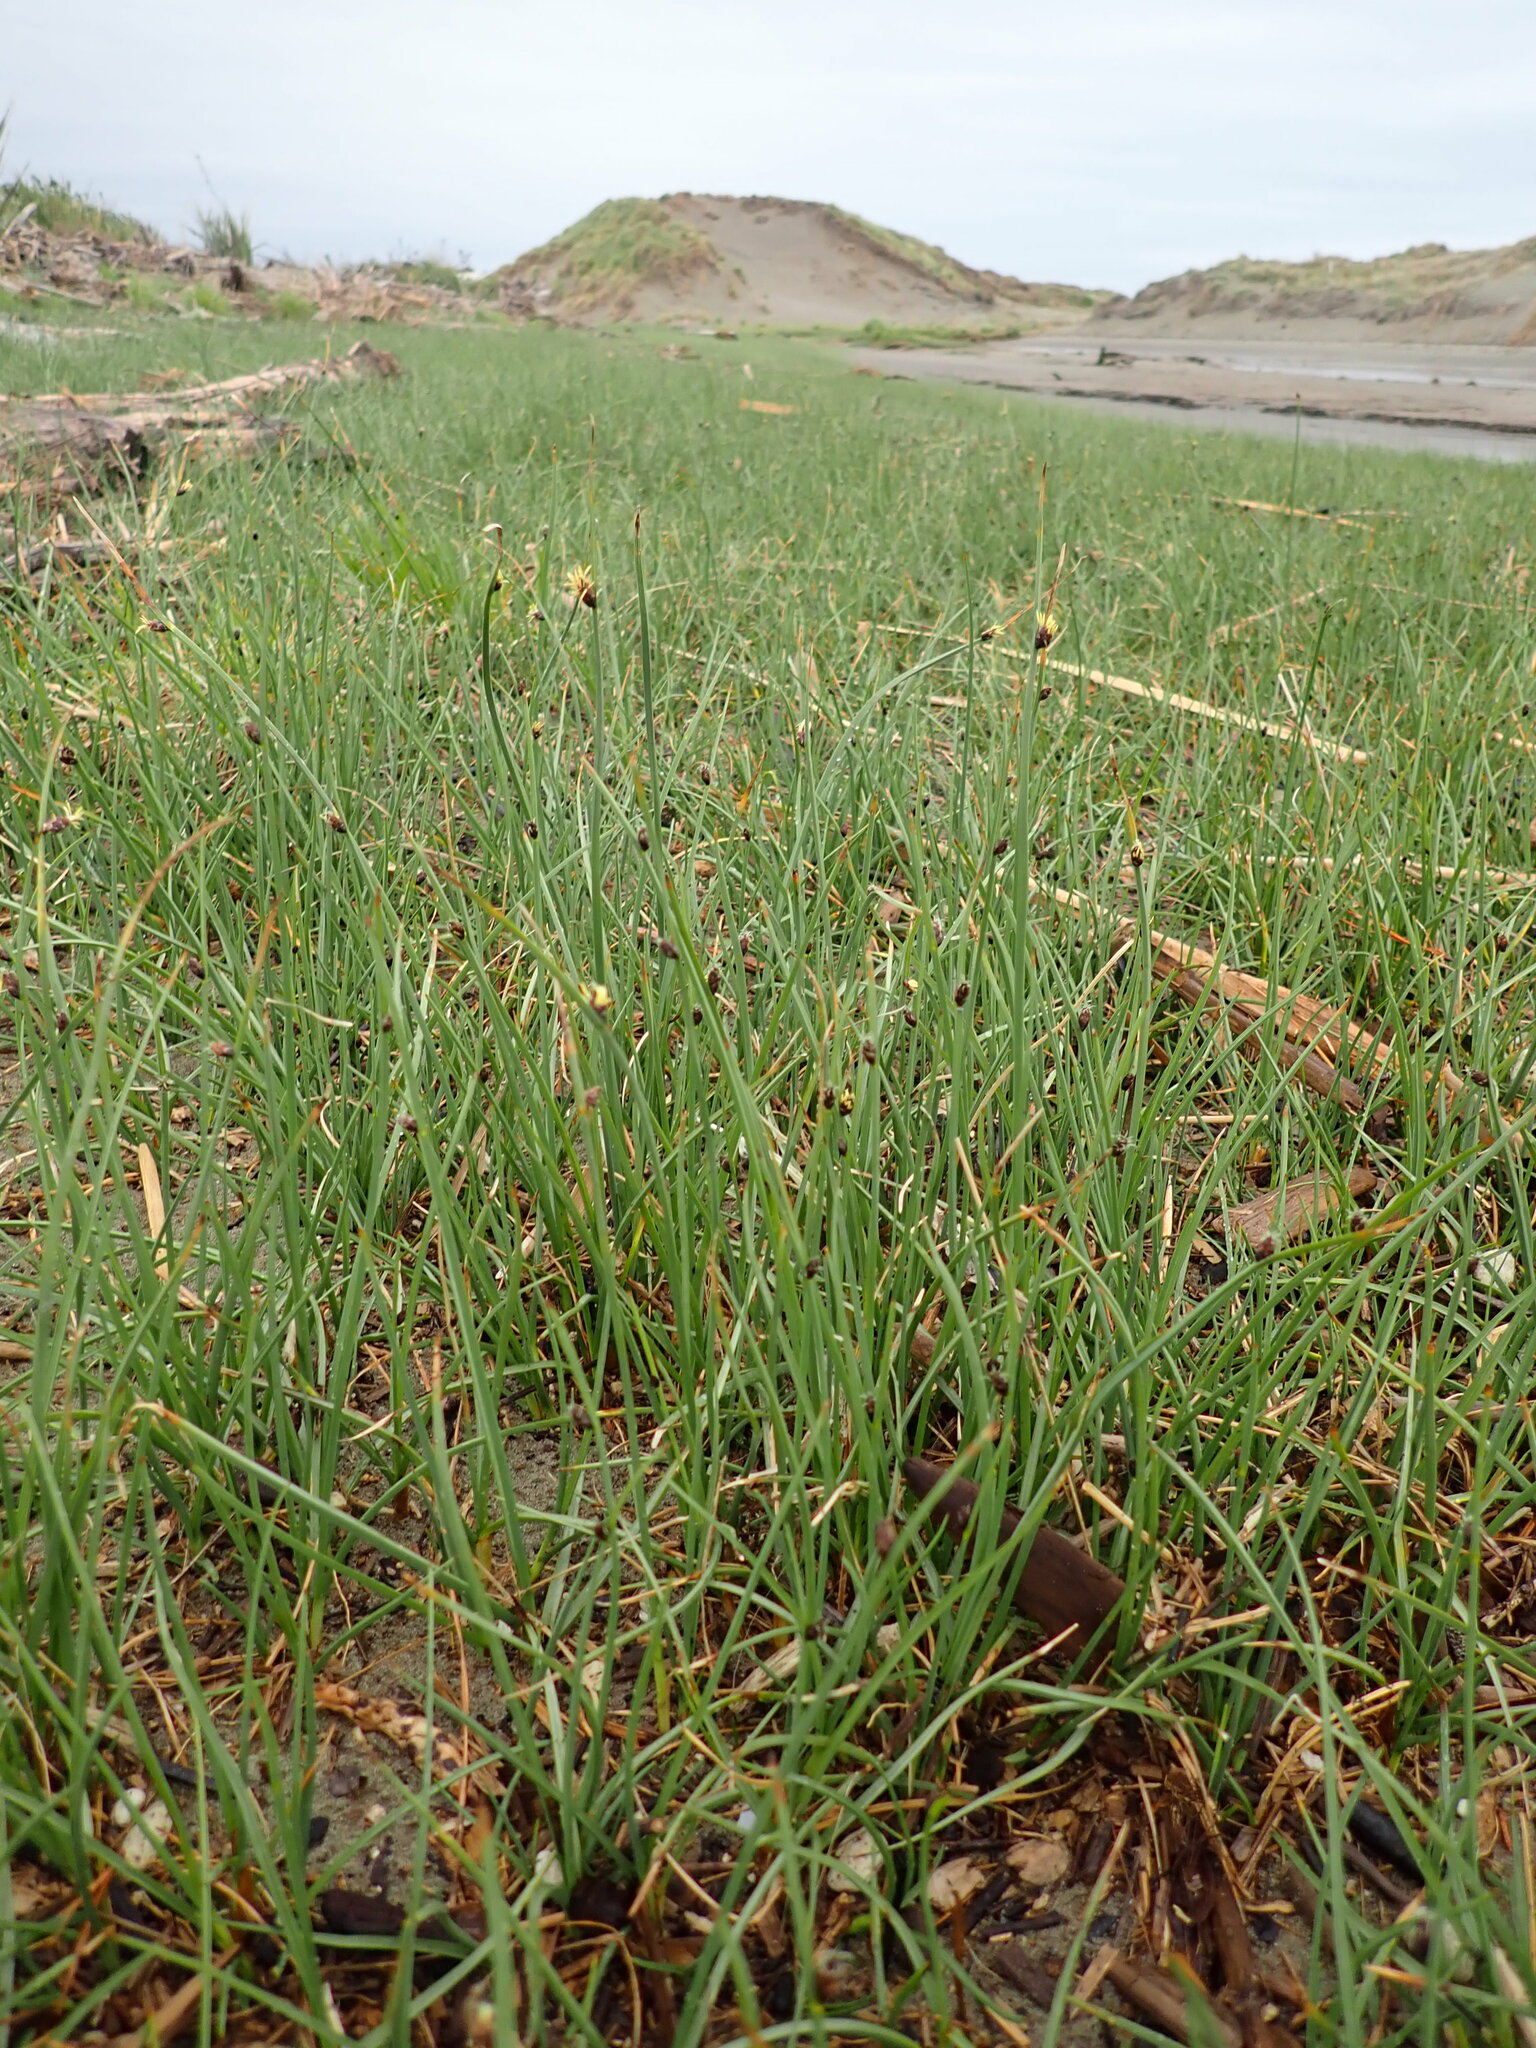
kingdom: Plantae
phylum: Tracheophyta
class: Liliopsida
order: Poales
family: Cyperaceae
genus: Schoenoplectus
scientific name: Schoenoplectus pungens
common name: Sharp club-rush
